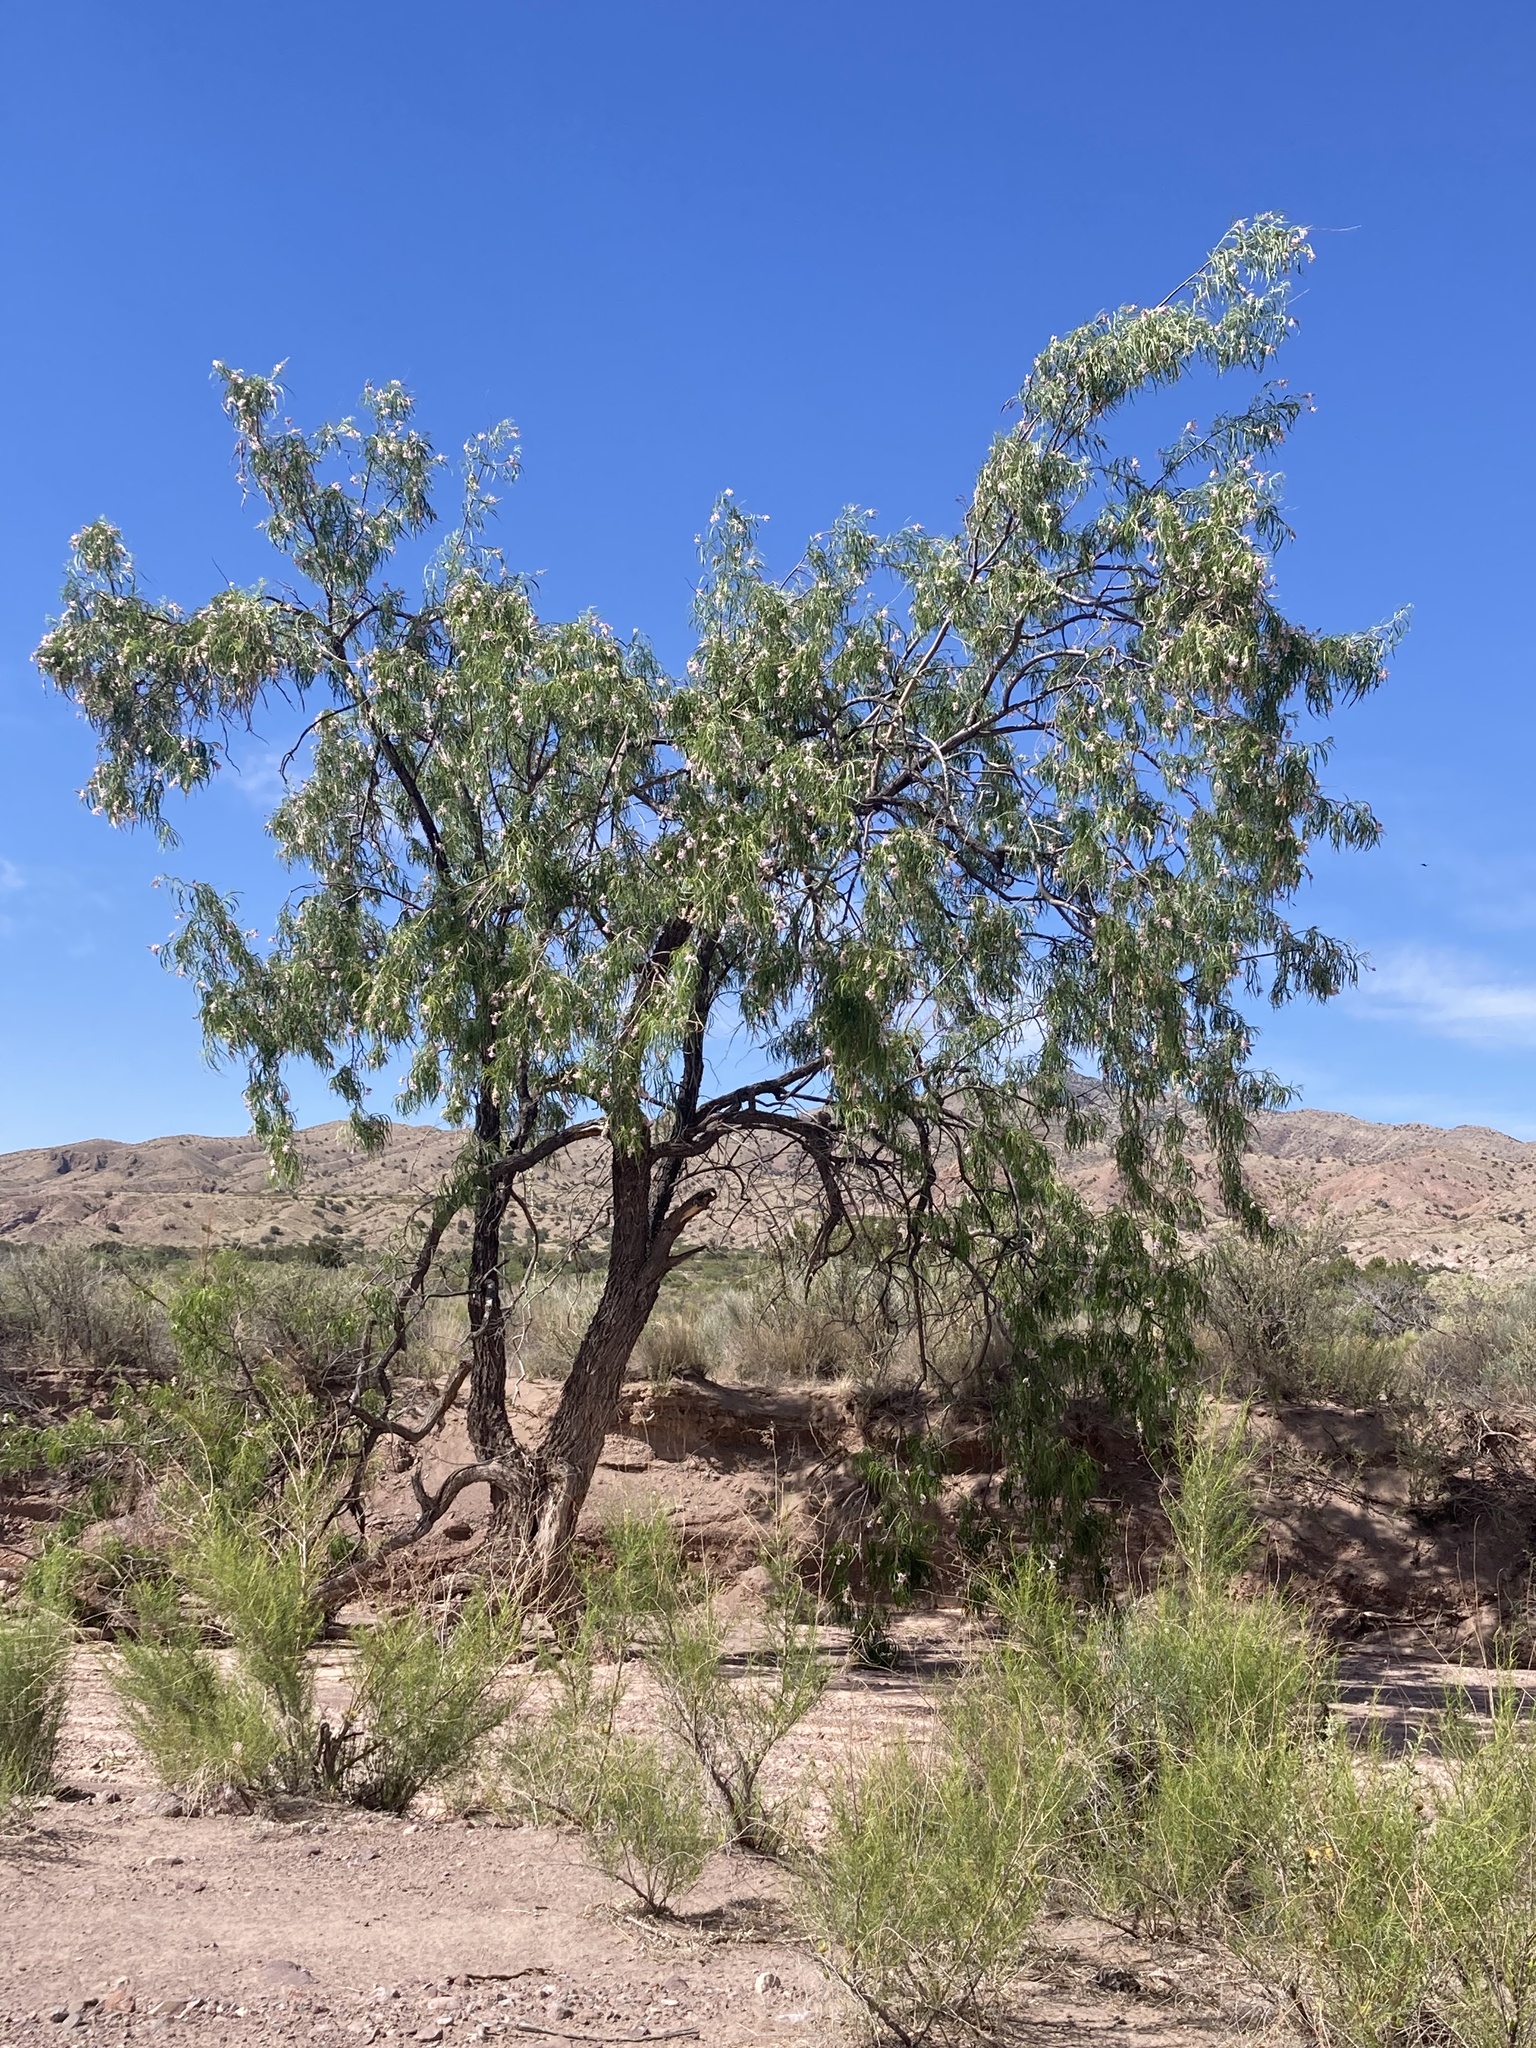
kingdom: Plantae
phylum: Tracheophyta
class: Magnoliopsida
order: Lamiales
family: Bignoniaceae
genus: Chilopsis
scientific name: Chilopsis linearis
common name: Desert-willow
